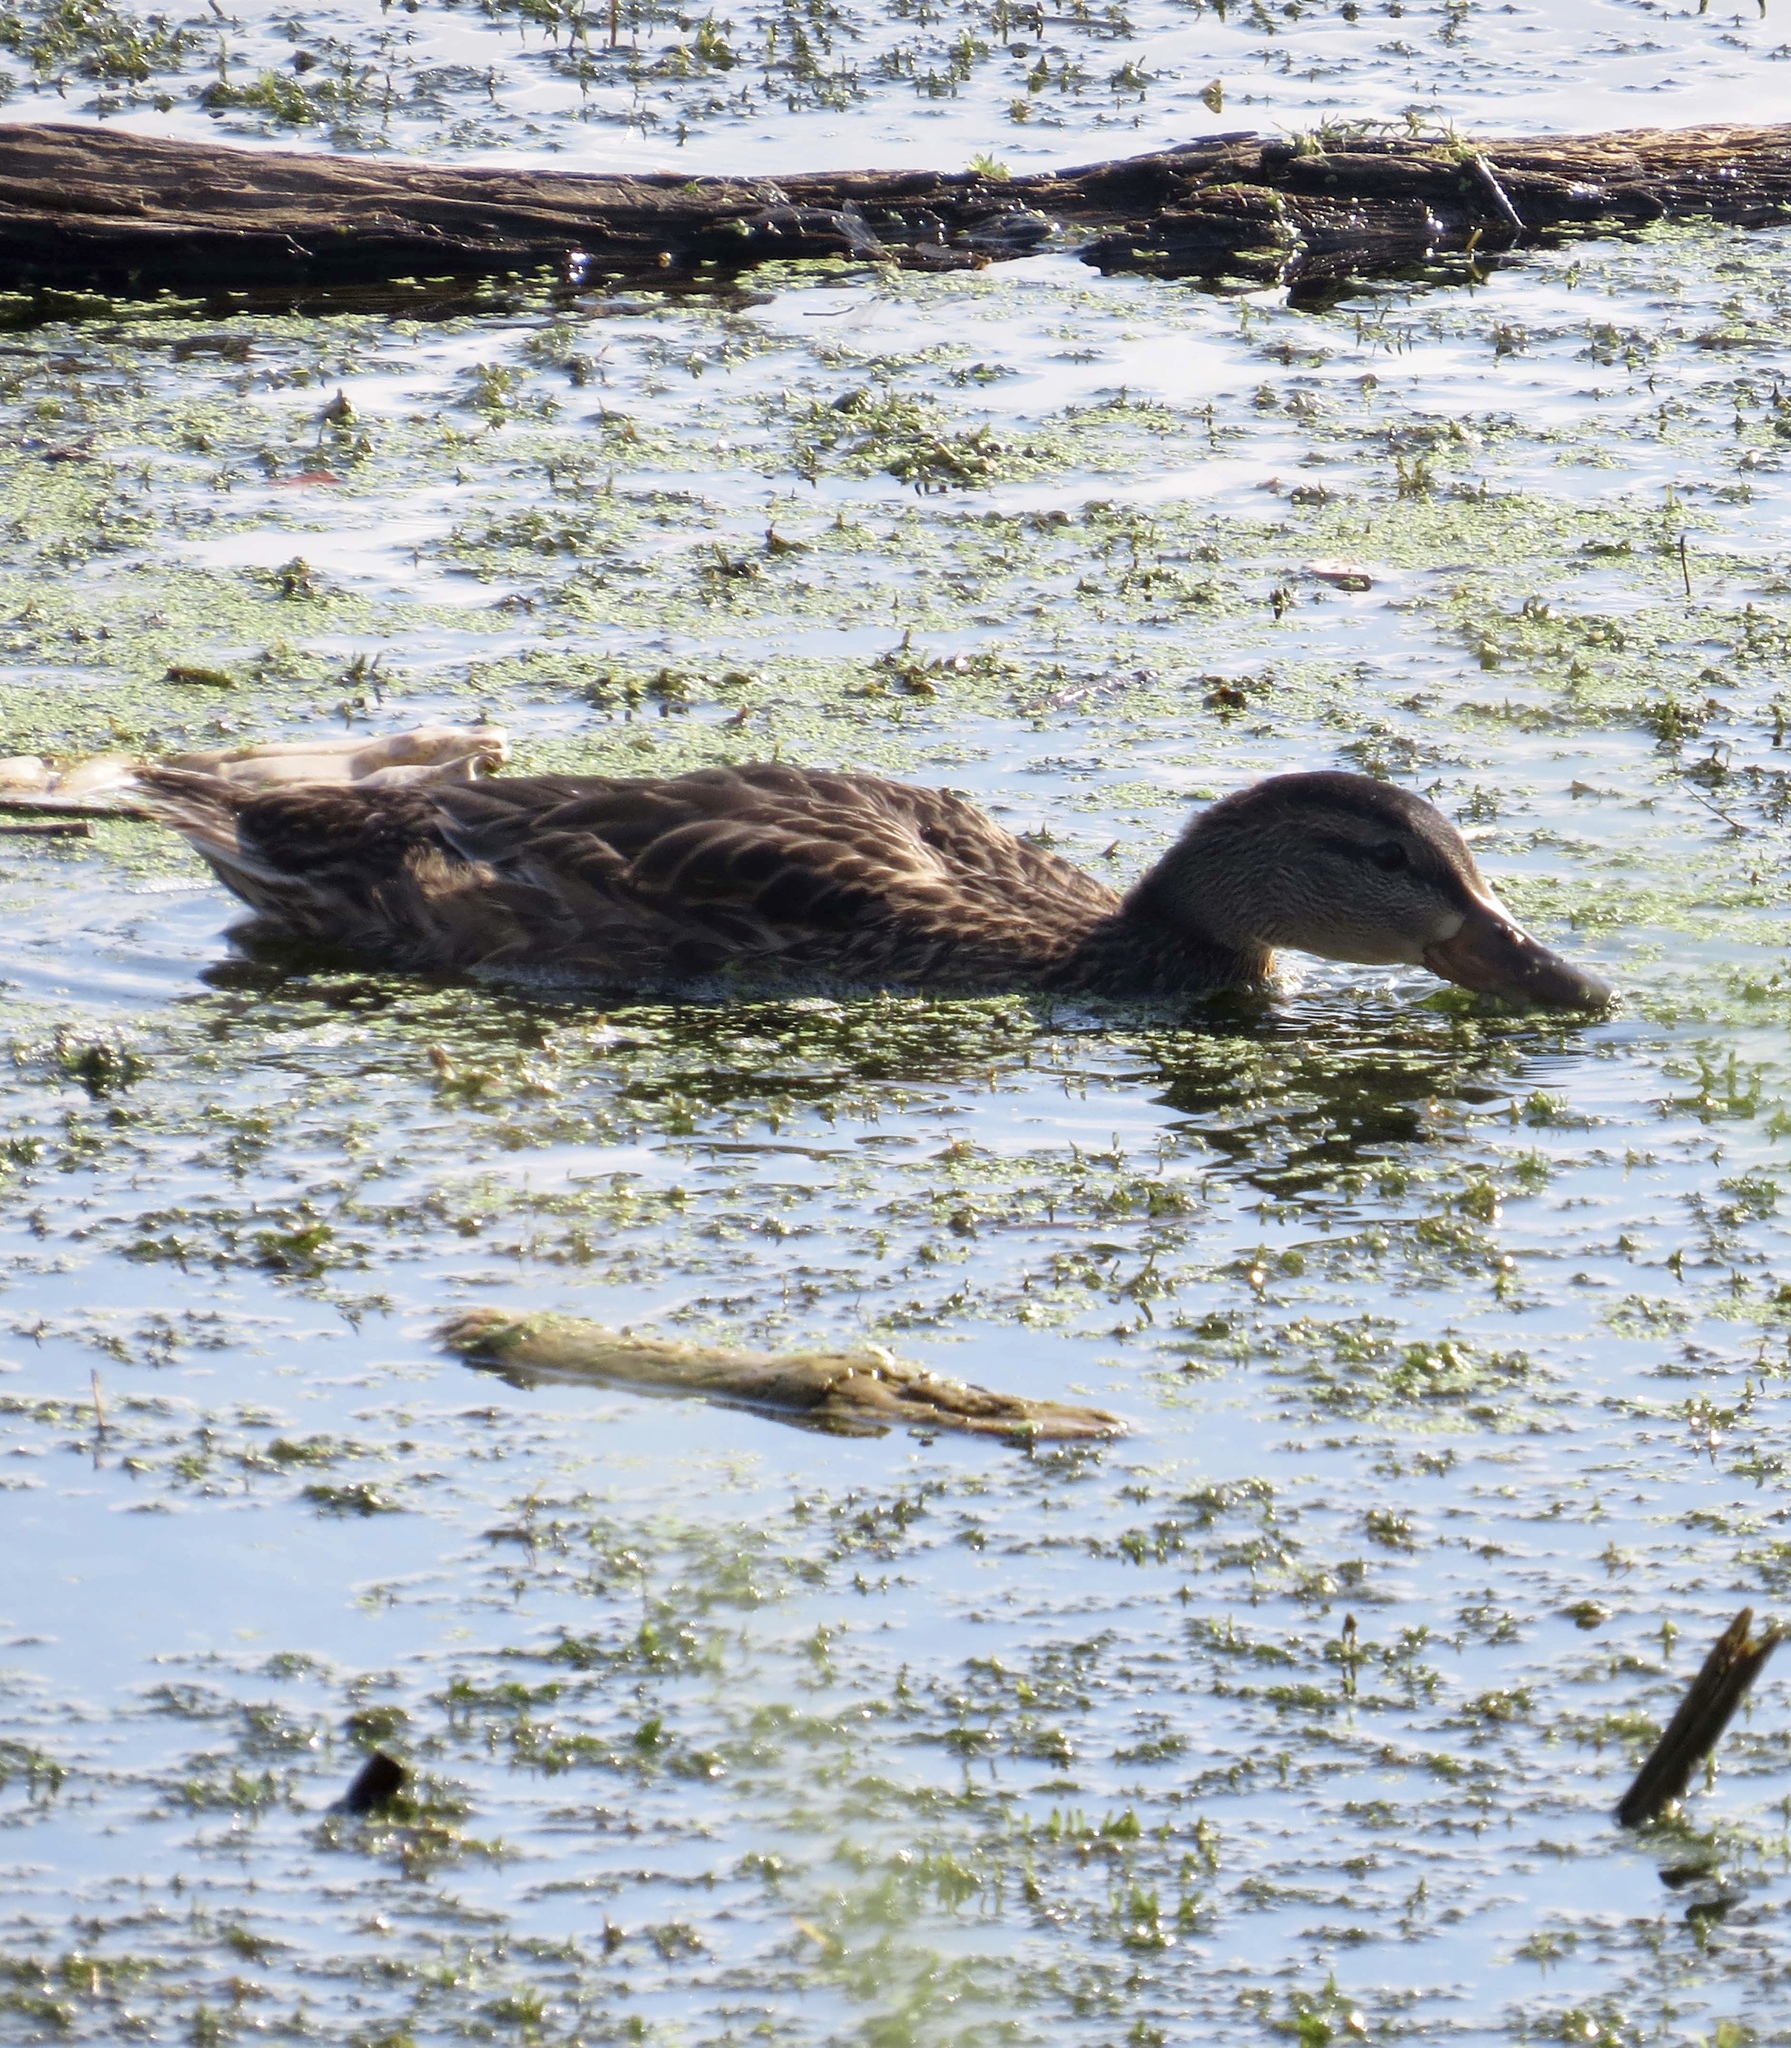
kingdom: Animalia
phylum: Chordata
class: Aves
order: Anseriformes
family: Anatidae
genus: Anas
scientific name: Anas platyrhynchos
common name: Mallard
